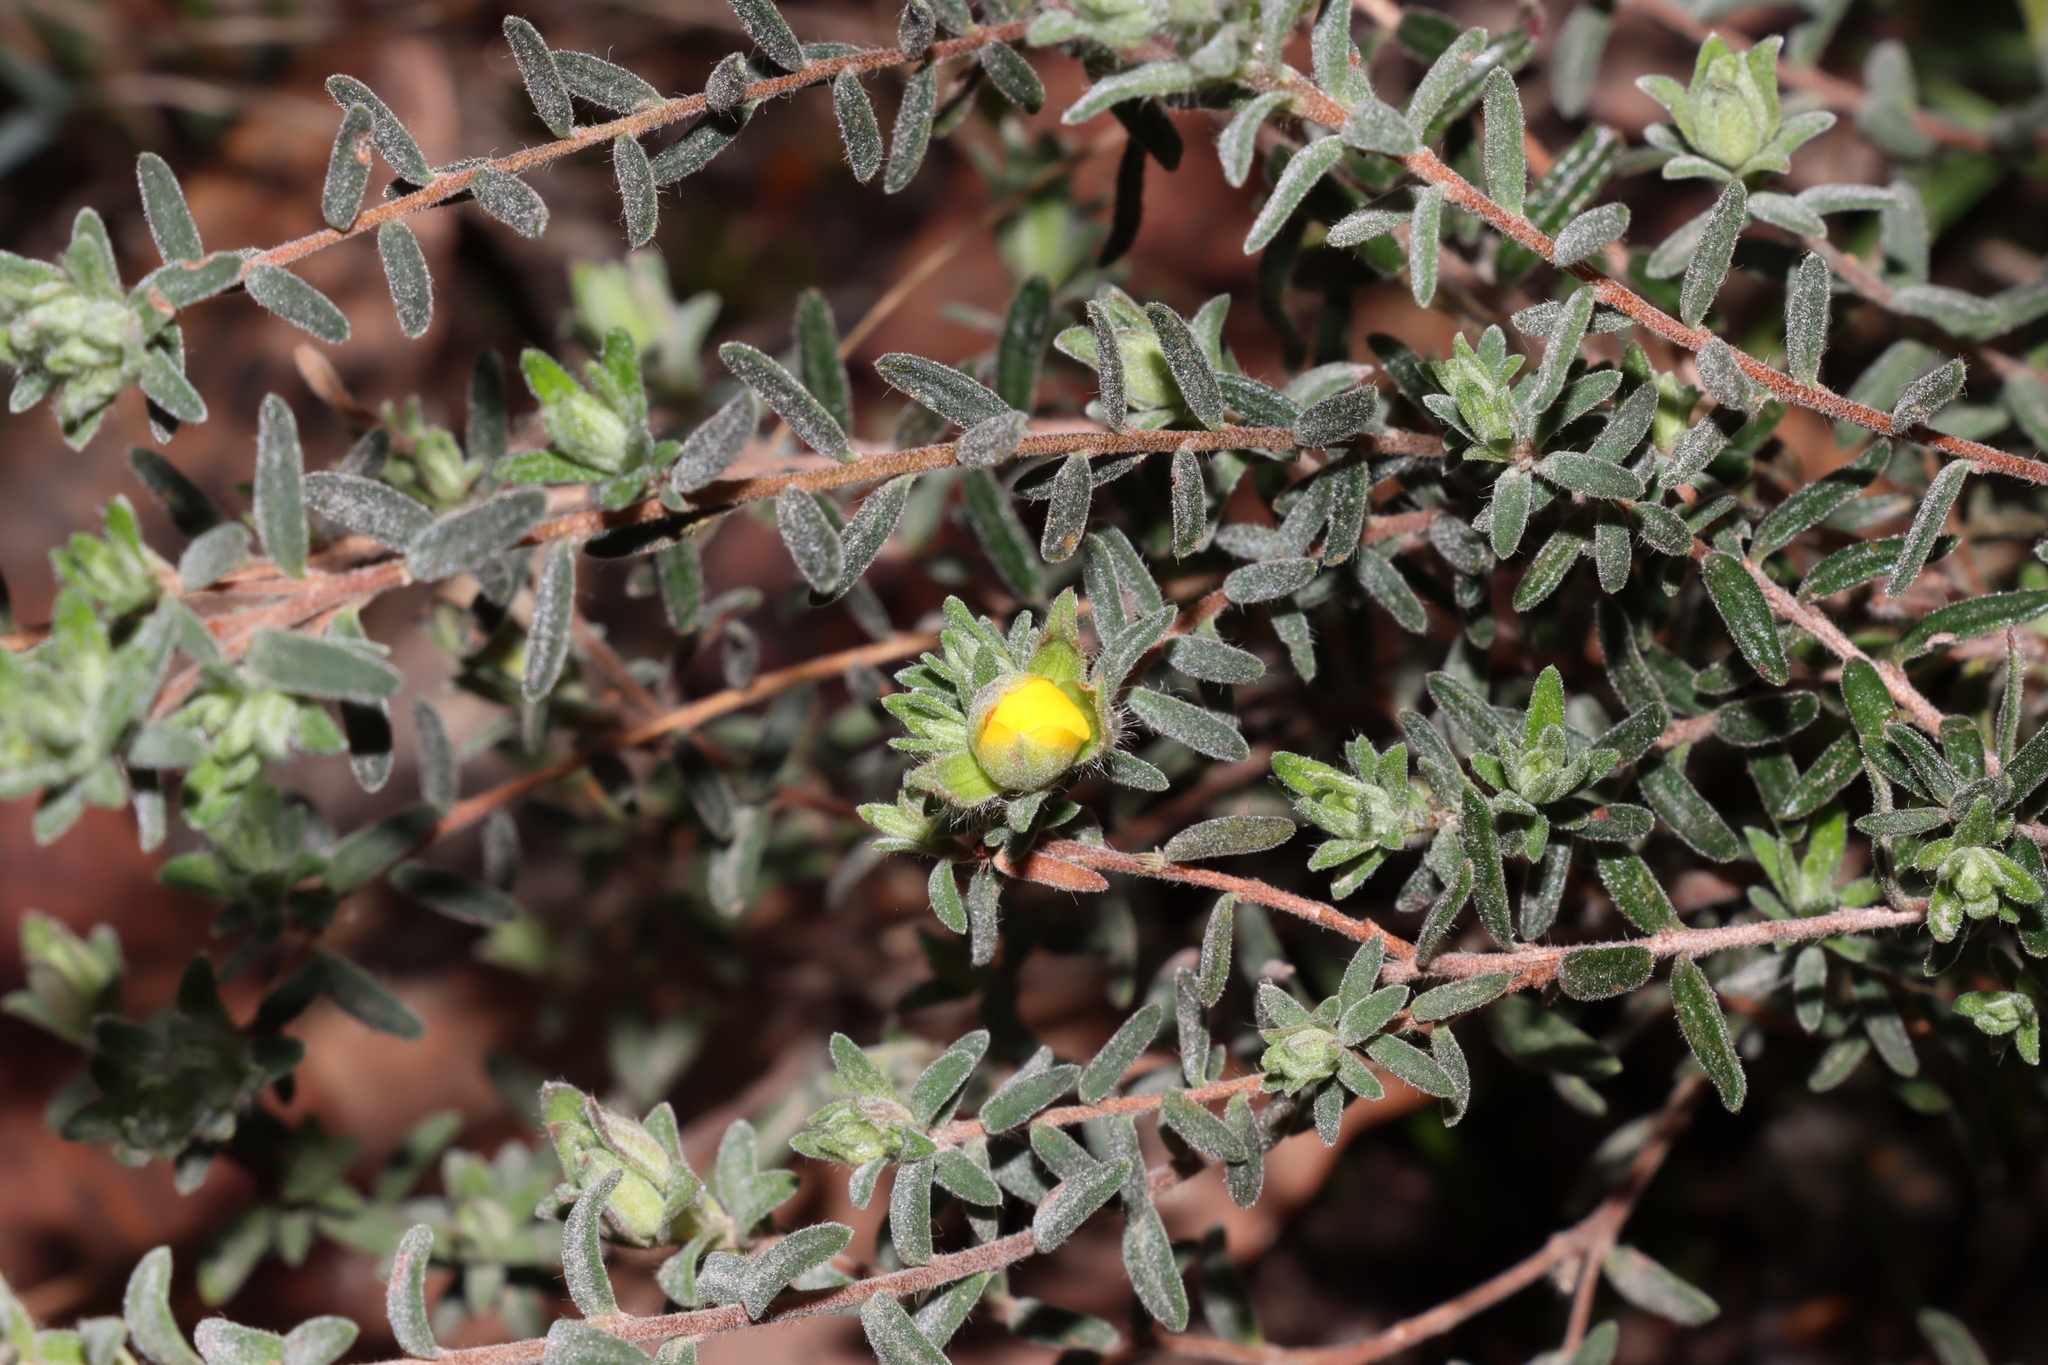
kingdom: Plantae
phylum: Tracheophyta
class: Magnoliopsida
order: Dilleniales
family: Dilleniaceae
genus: Hibbertia
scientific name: Hibbertia crinita
